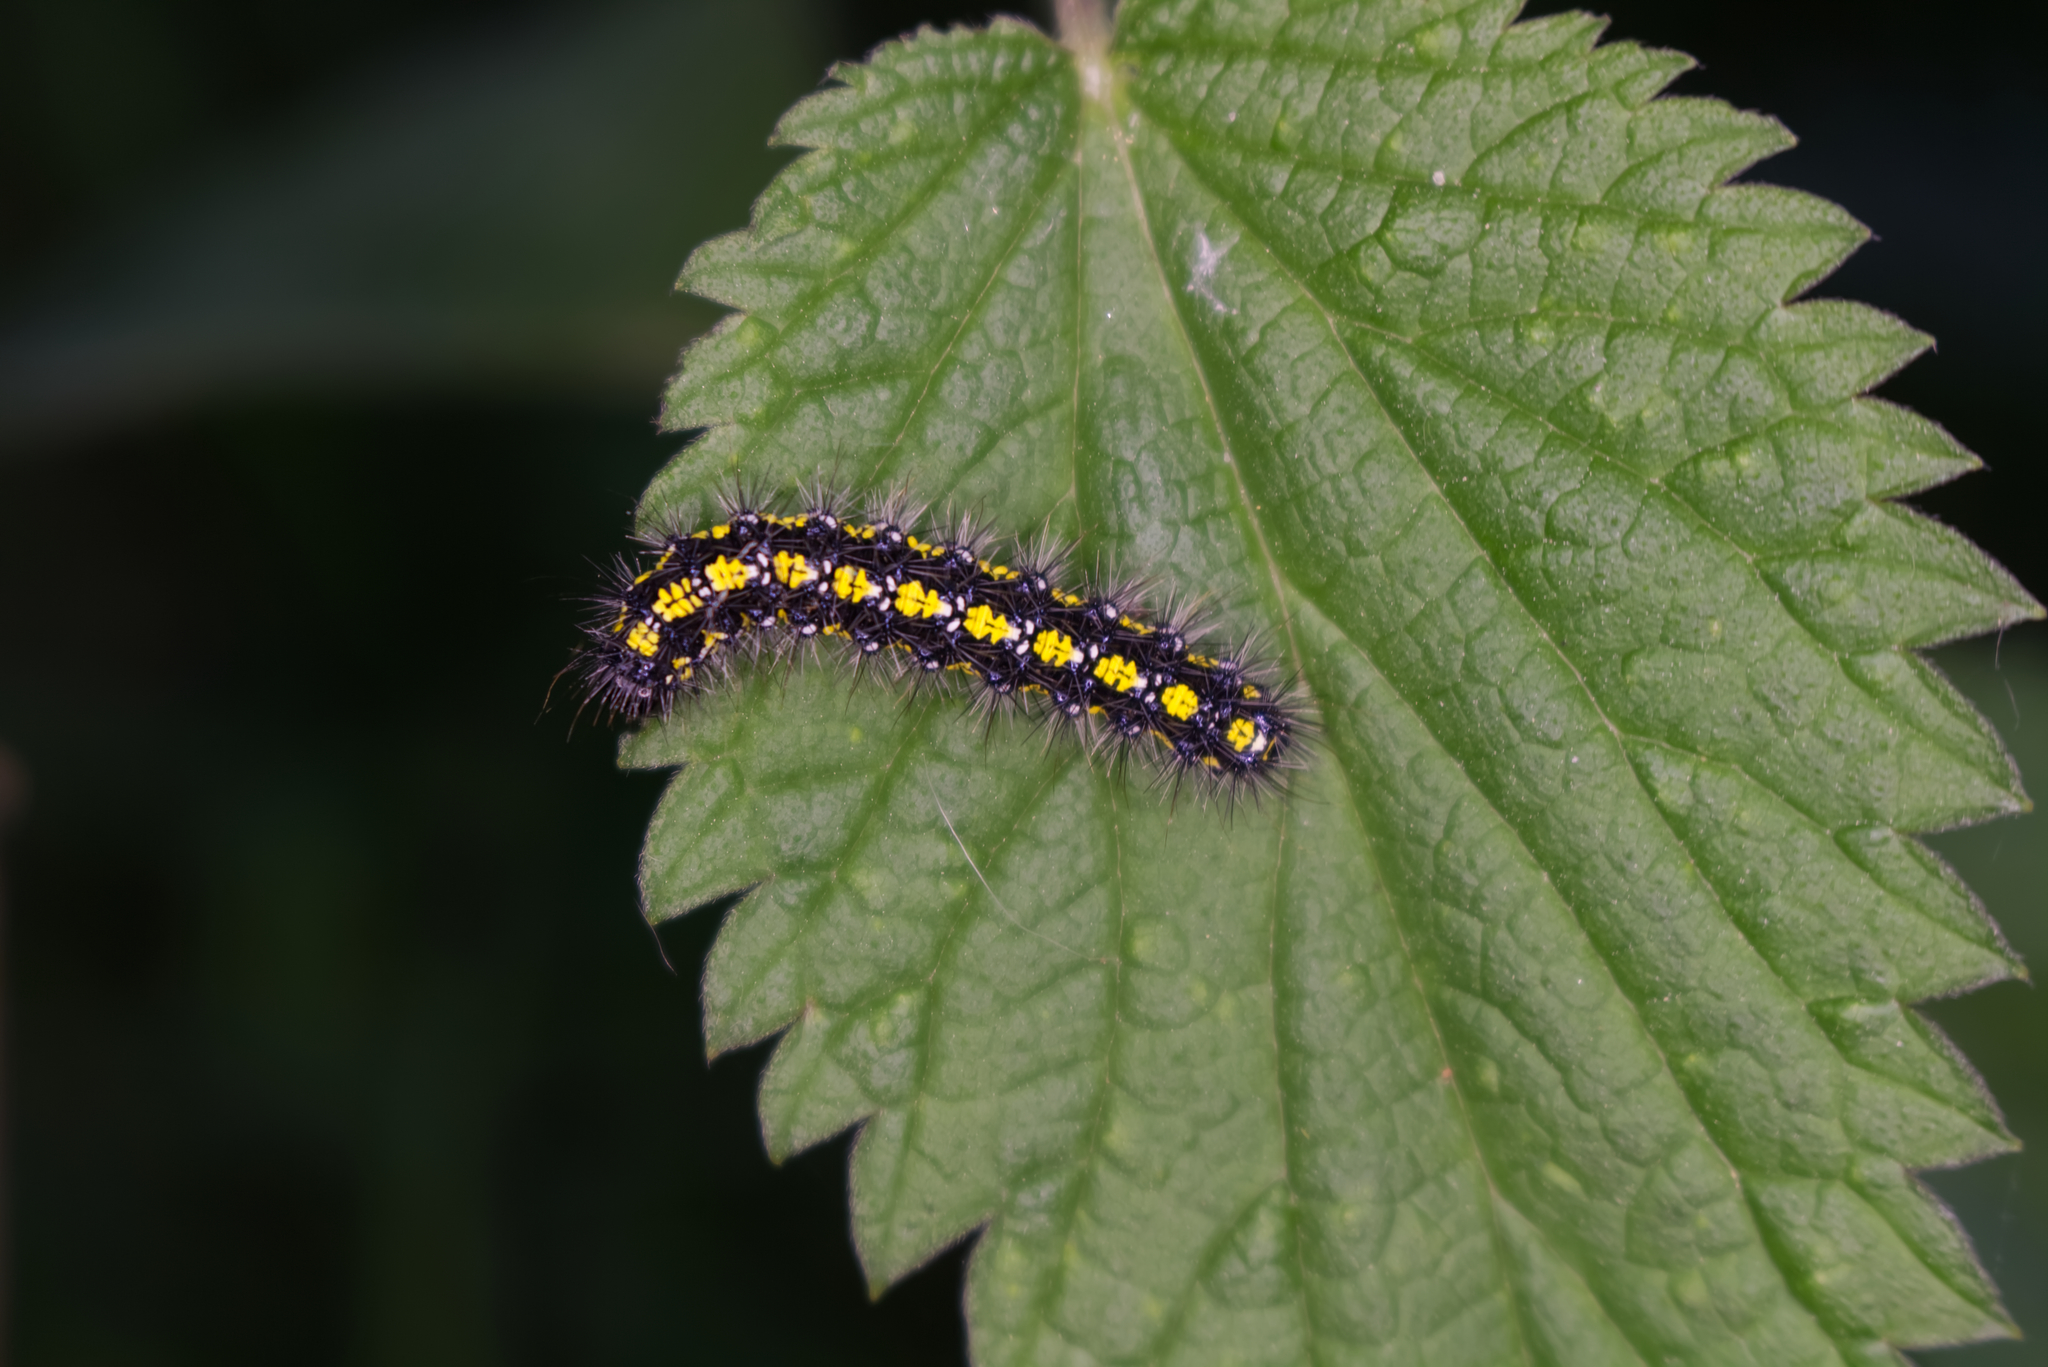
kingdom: Animalia
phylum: Arthropoda
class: Insecta
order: Lepidoptera
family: Erebidae
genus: Callimorpha
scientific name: Callimorpha dominula
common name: Scarlet tiger
